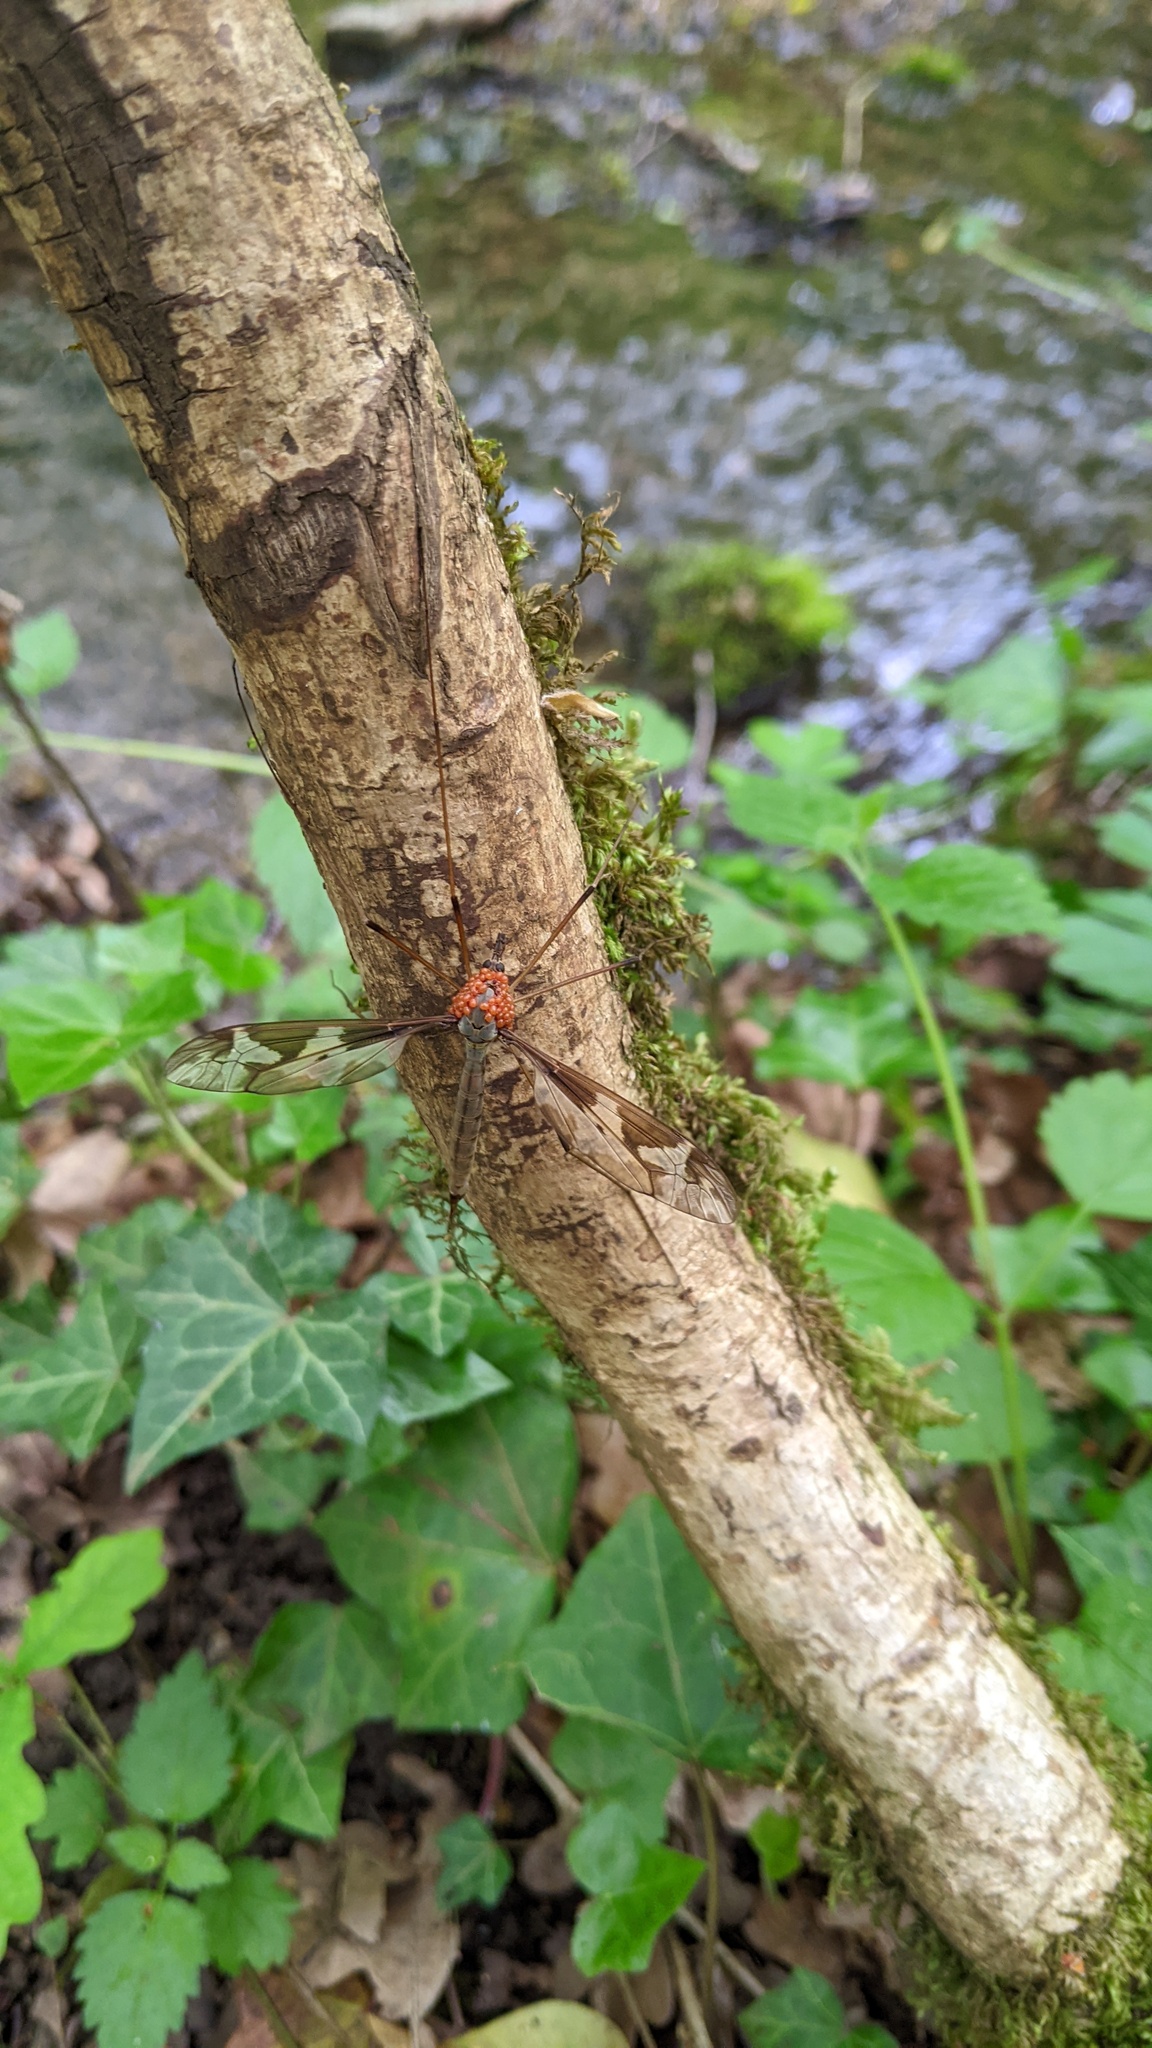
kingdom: Animalia
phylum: Arthropoda
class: Insecta
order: Diptera
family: Tipulidae
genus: Tipula
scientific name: Tipula maxima
